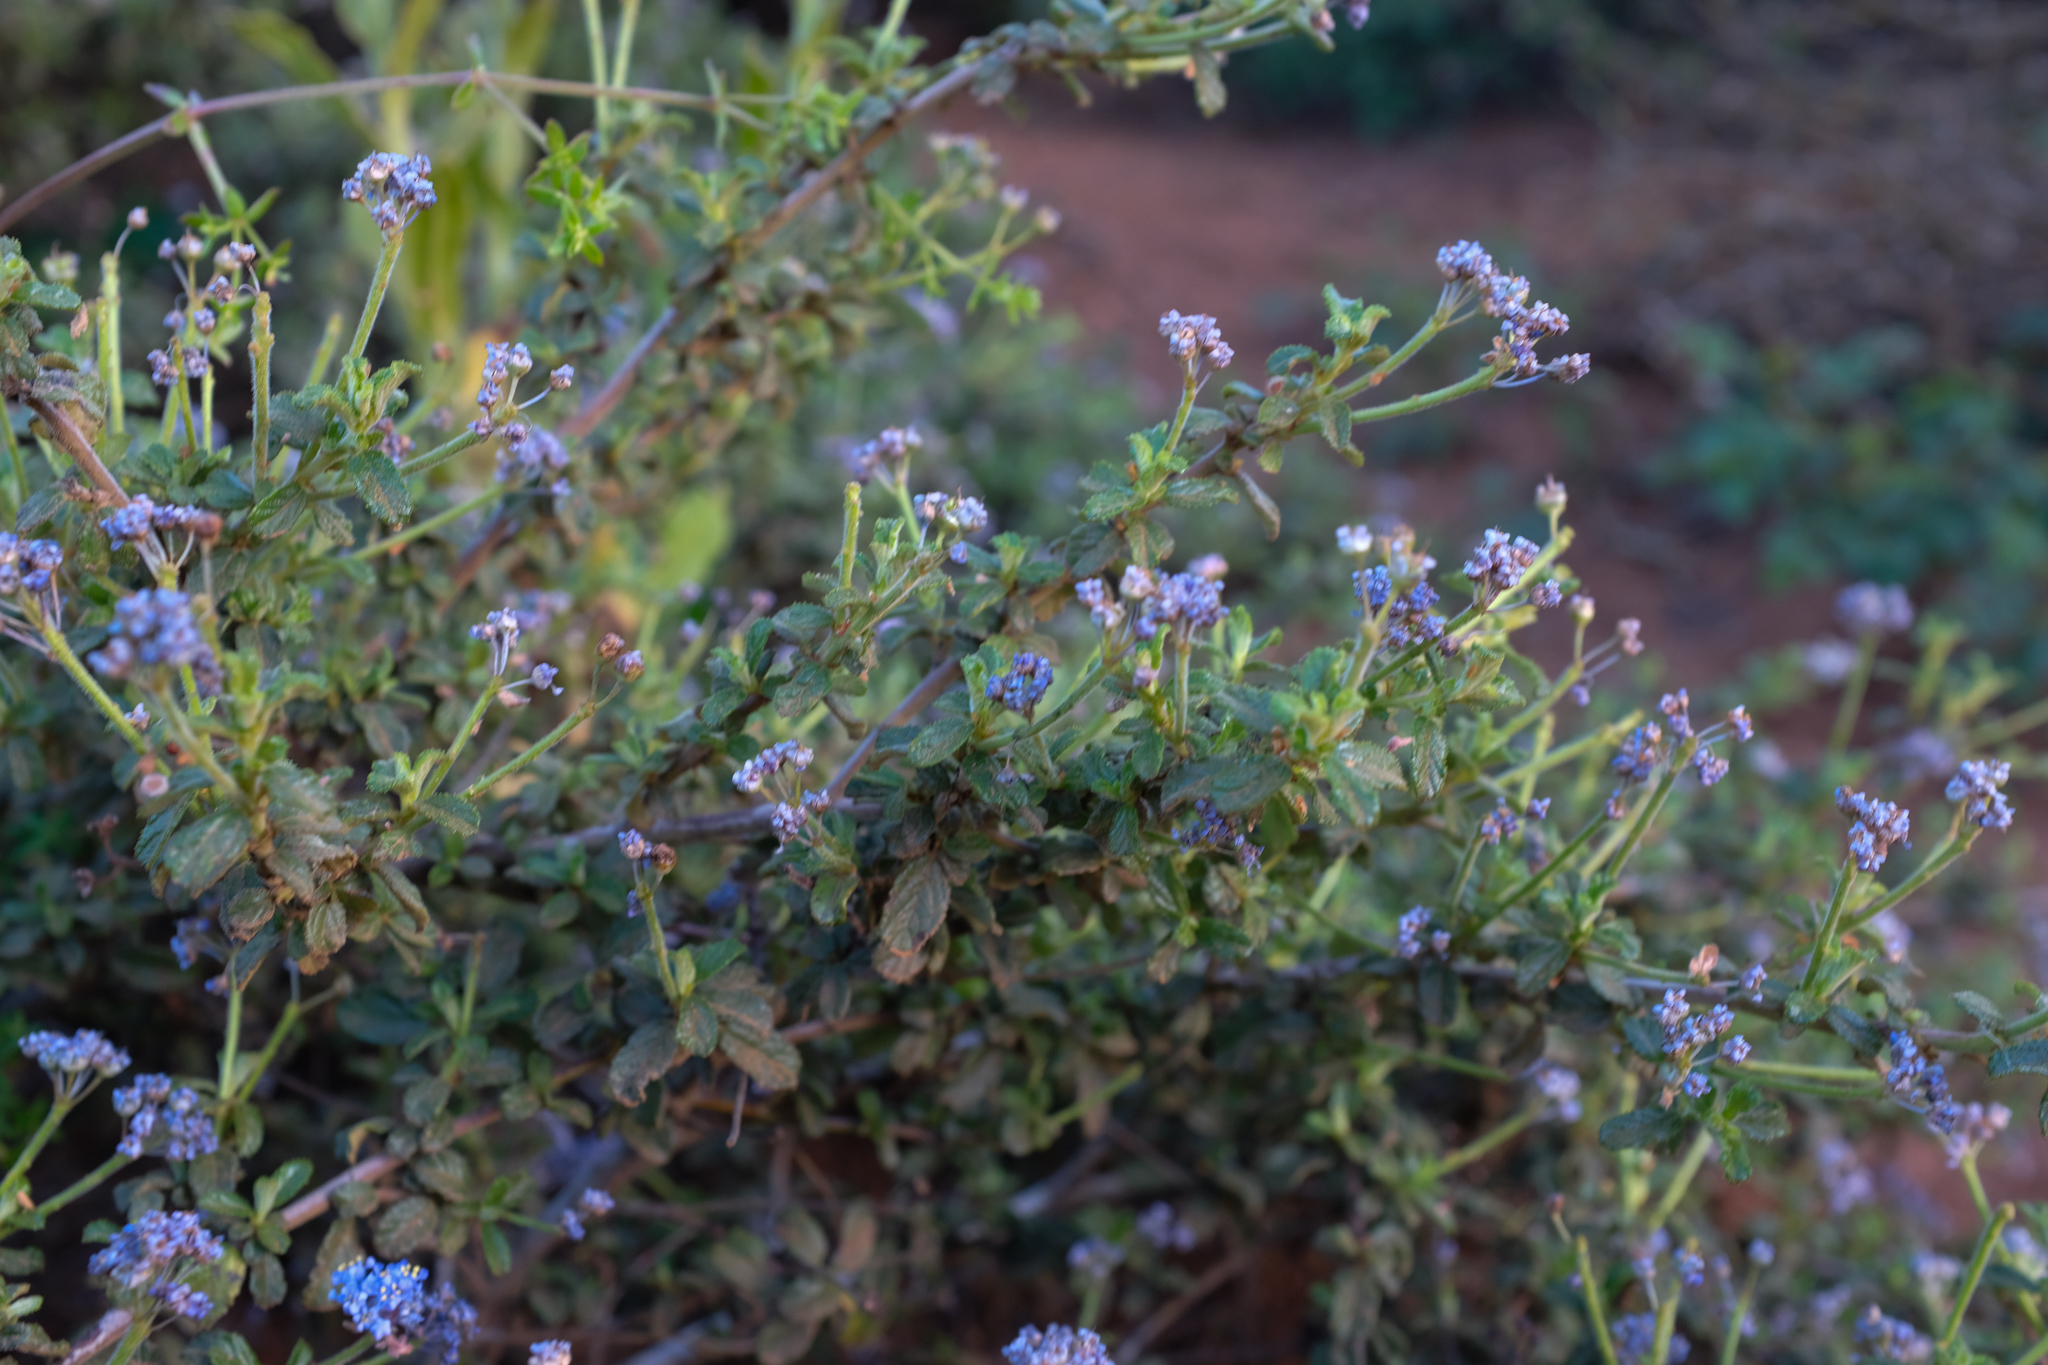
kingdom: Plantae
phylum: Tracheophyta
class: Magnoliopsida
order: Rosales
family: Rhamnaceae
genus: Ceanothus
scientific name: Ceanothus foliosus
